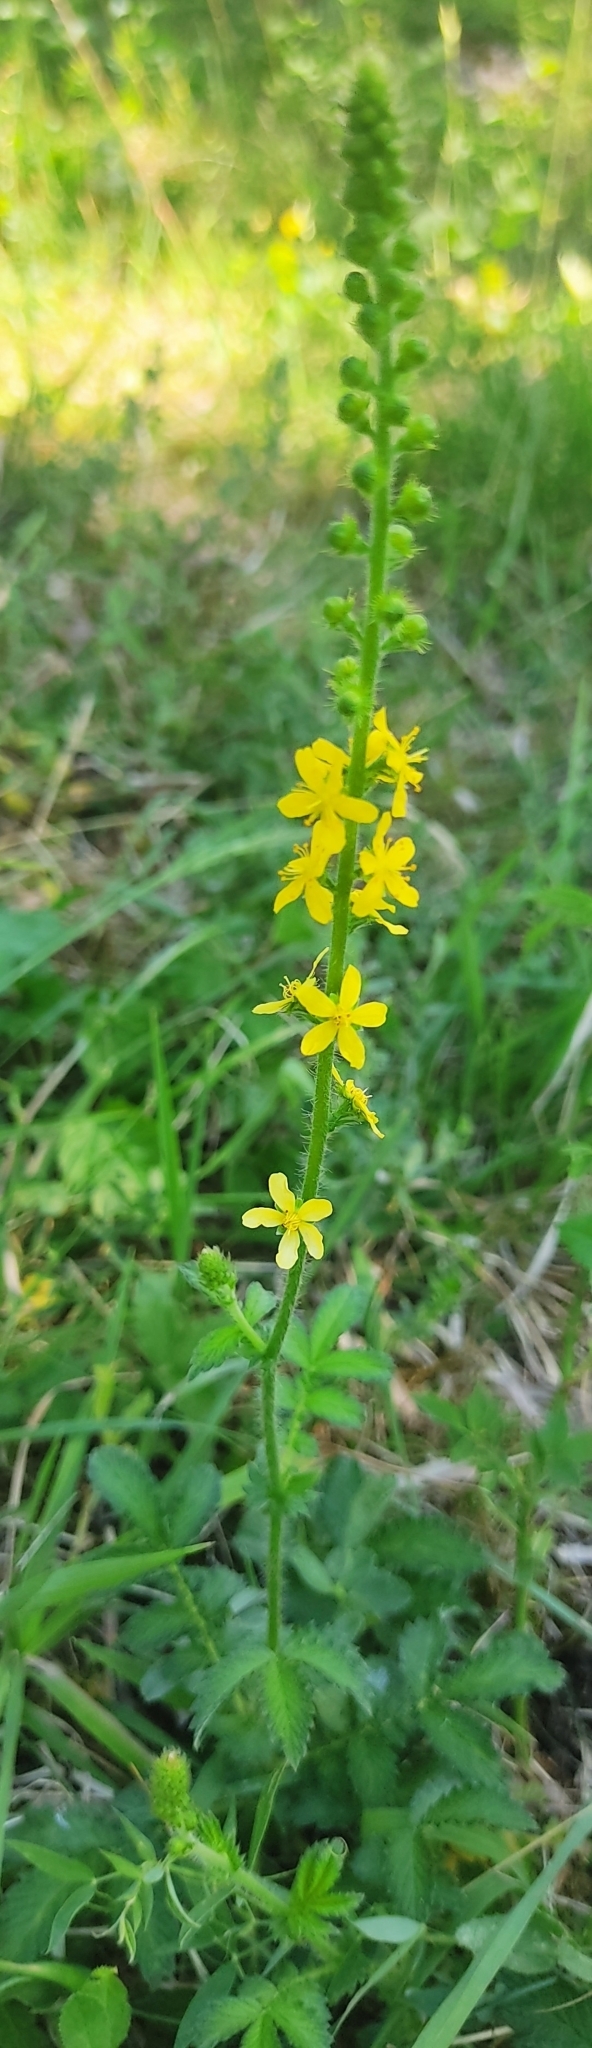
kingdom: Plantae
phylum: Tracheophyta
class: Magnoliopsida
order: Rosales
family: Rosaceae
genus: Agrimonia
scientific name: Agrimonia eupatoria
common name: Agrimony
